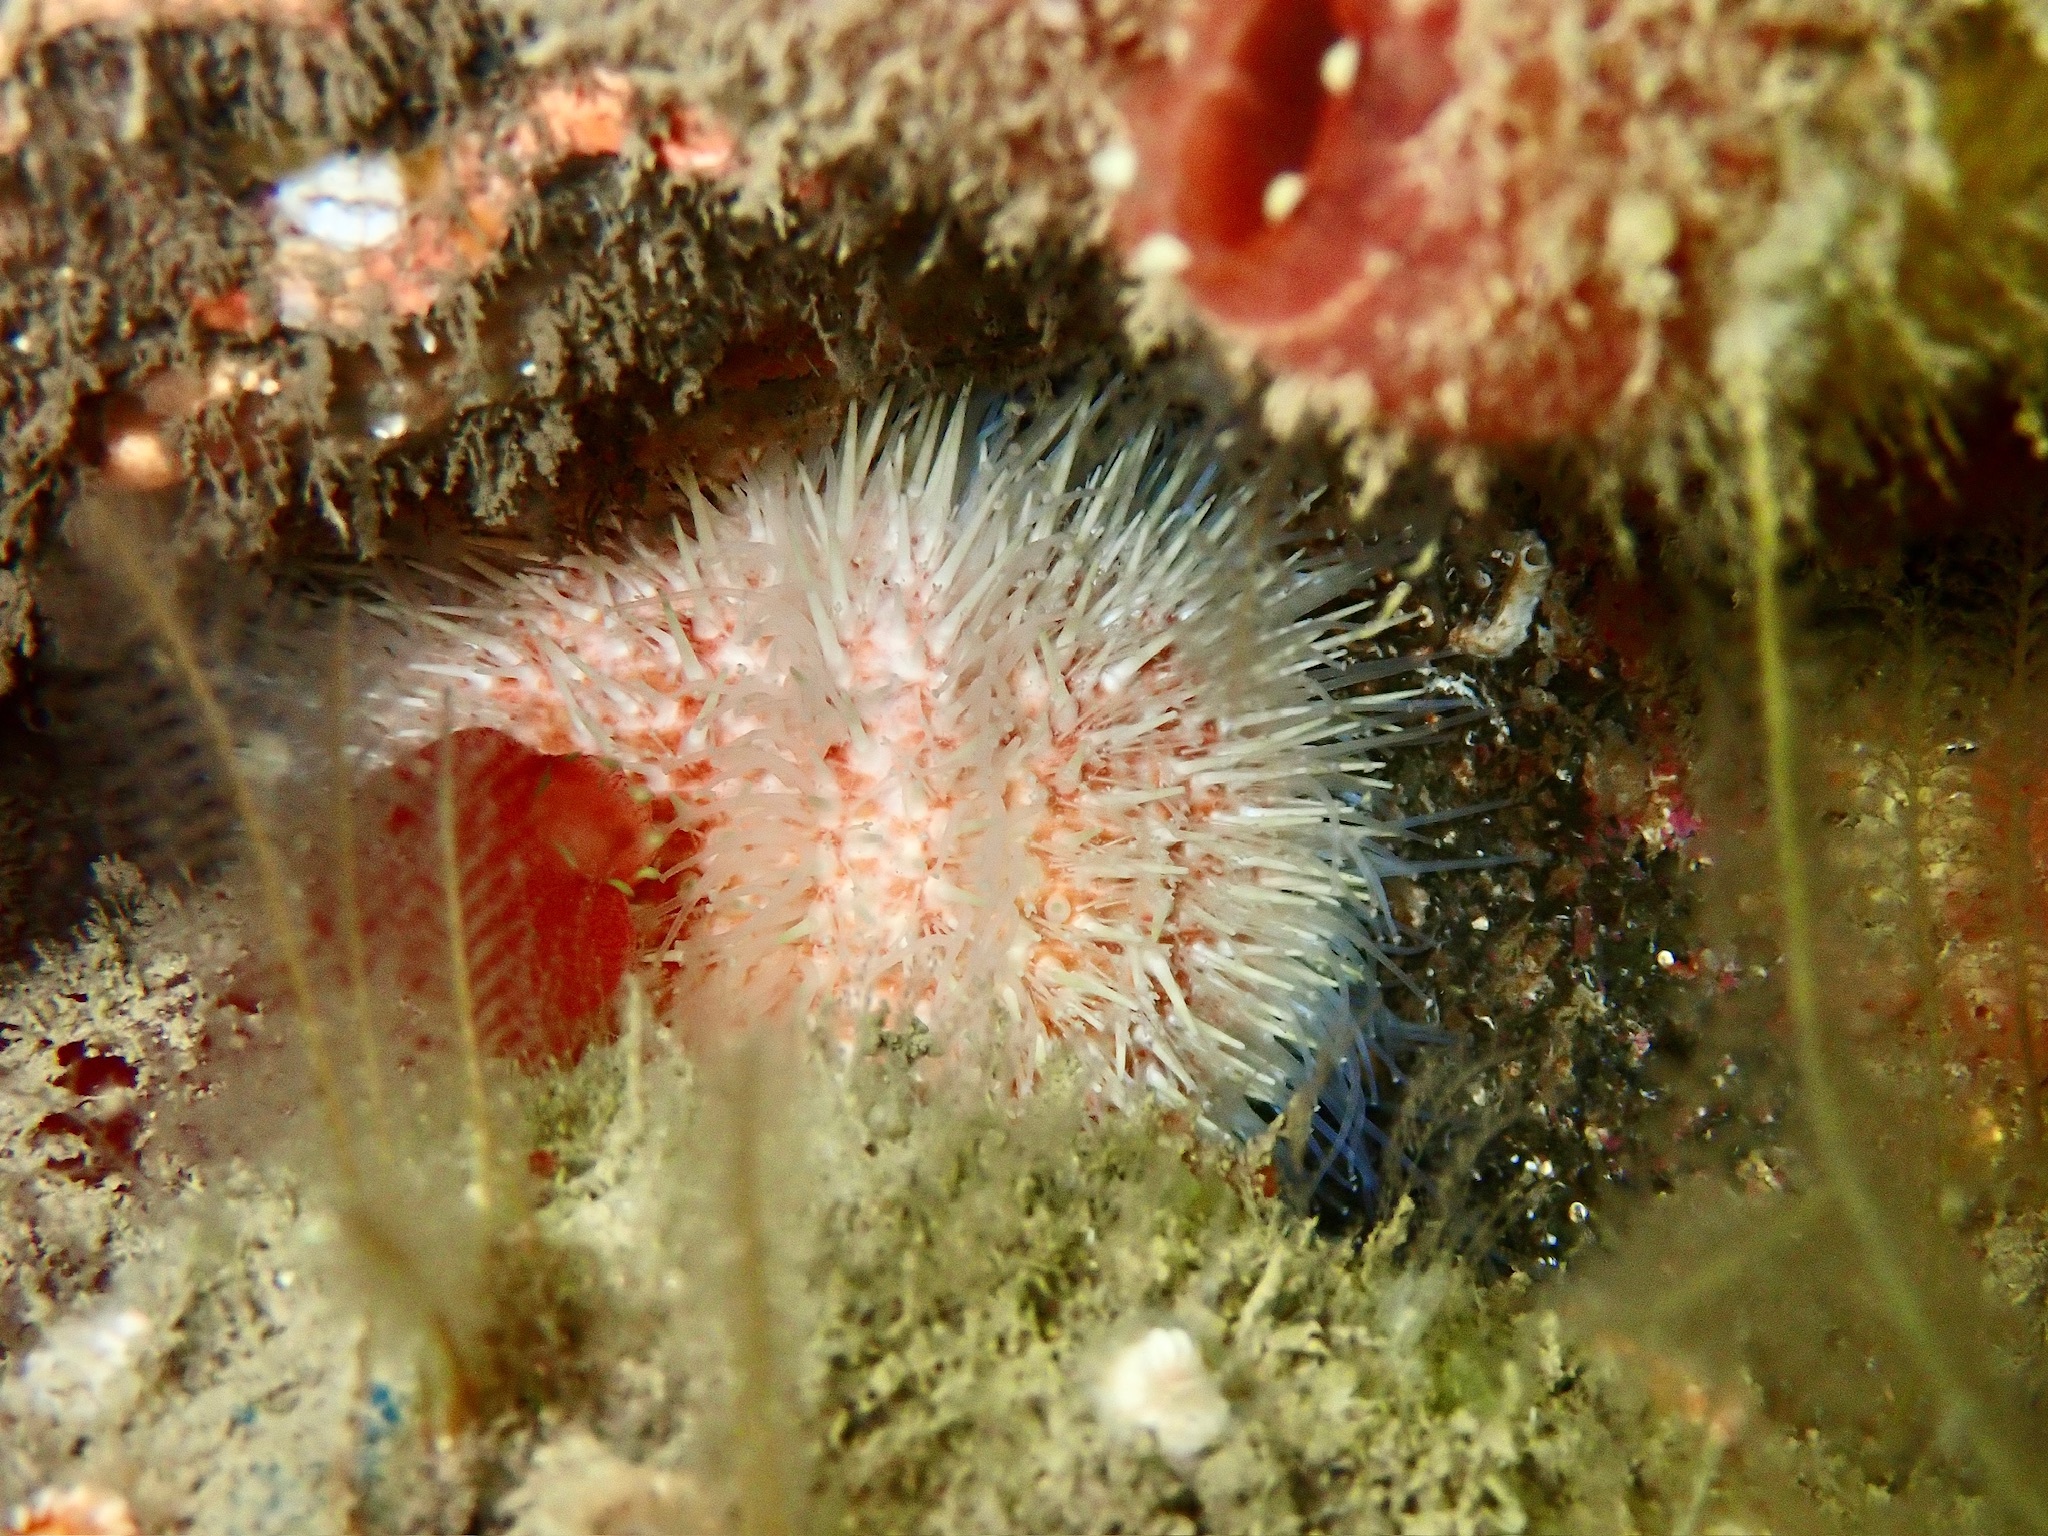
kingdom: Animalia
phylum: Echinodermata
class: Echinoidea
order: Camarodonta
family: Echinidae
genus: Echinus
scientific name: Echinus esculentus
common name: Edible sea urchin
